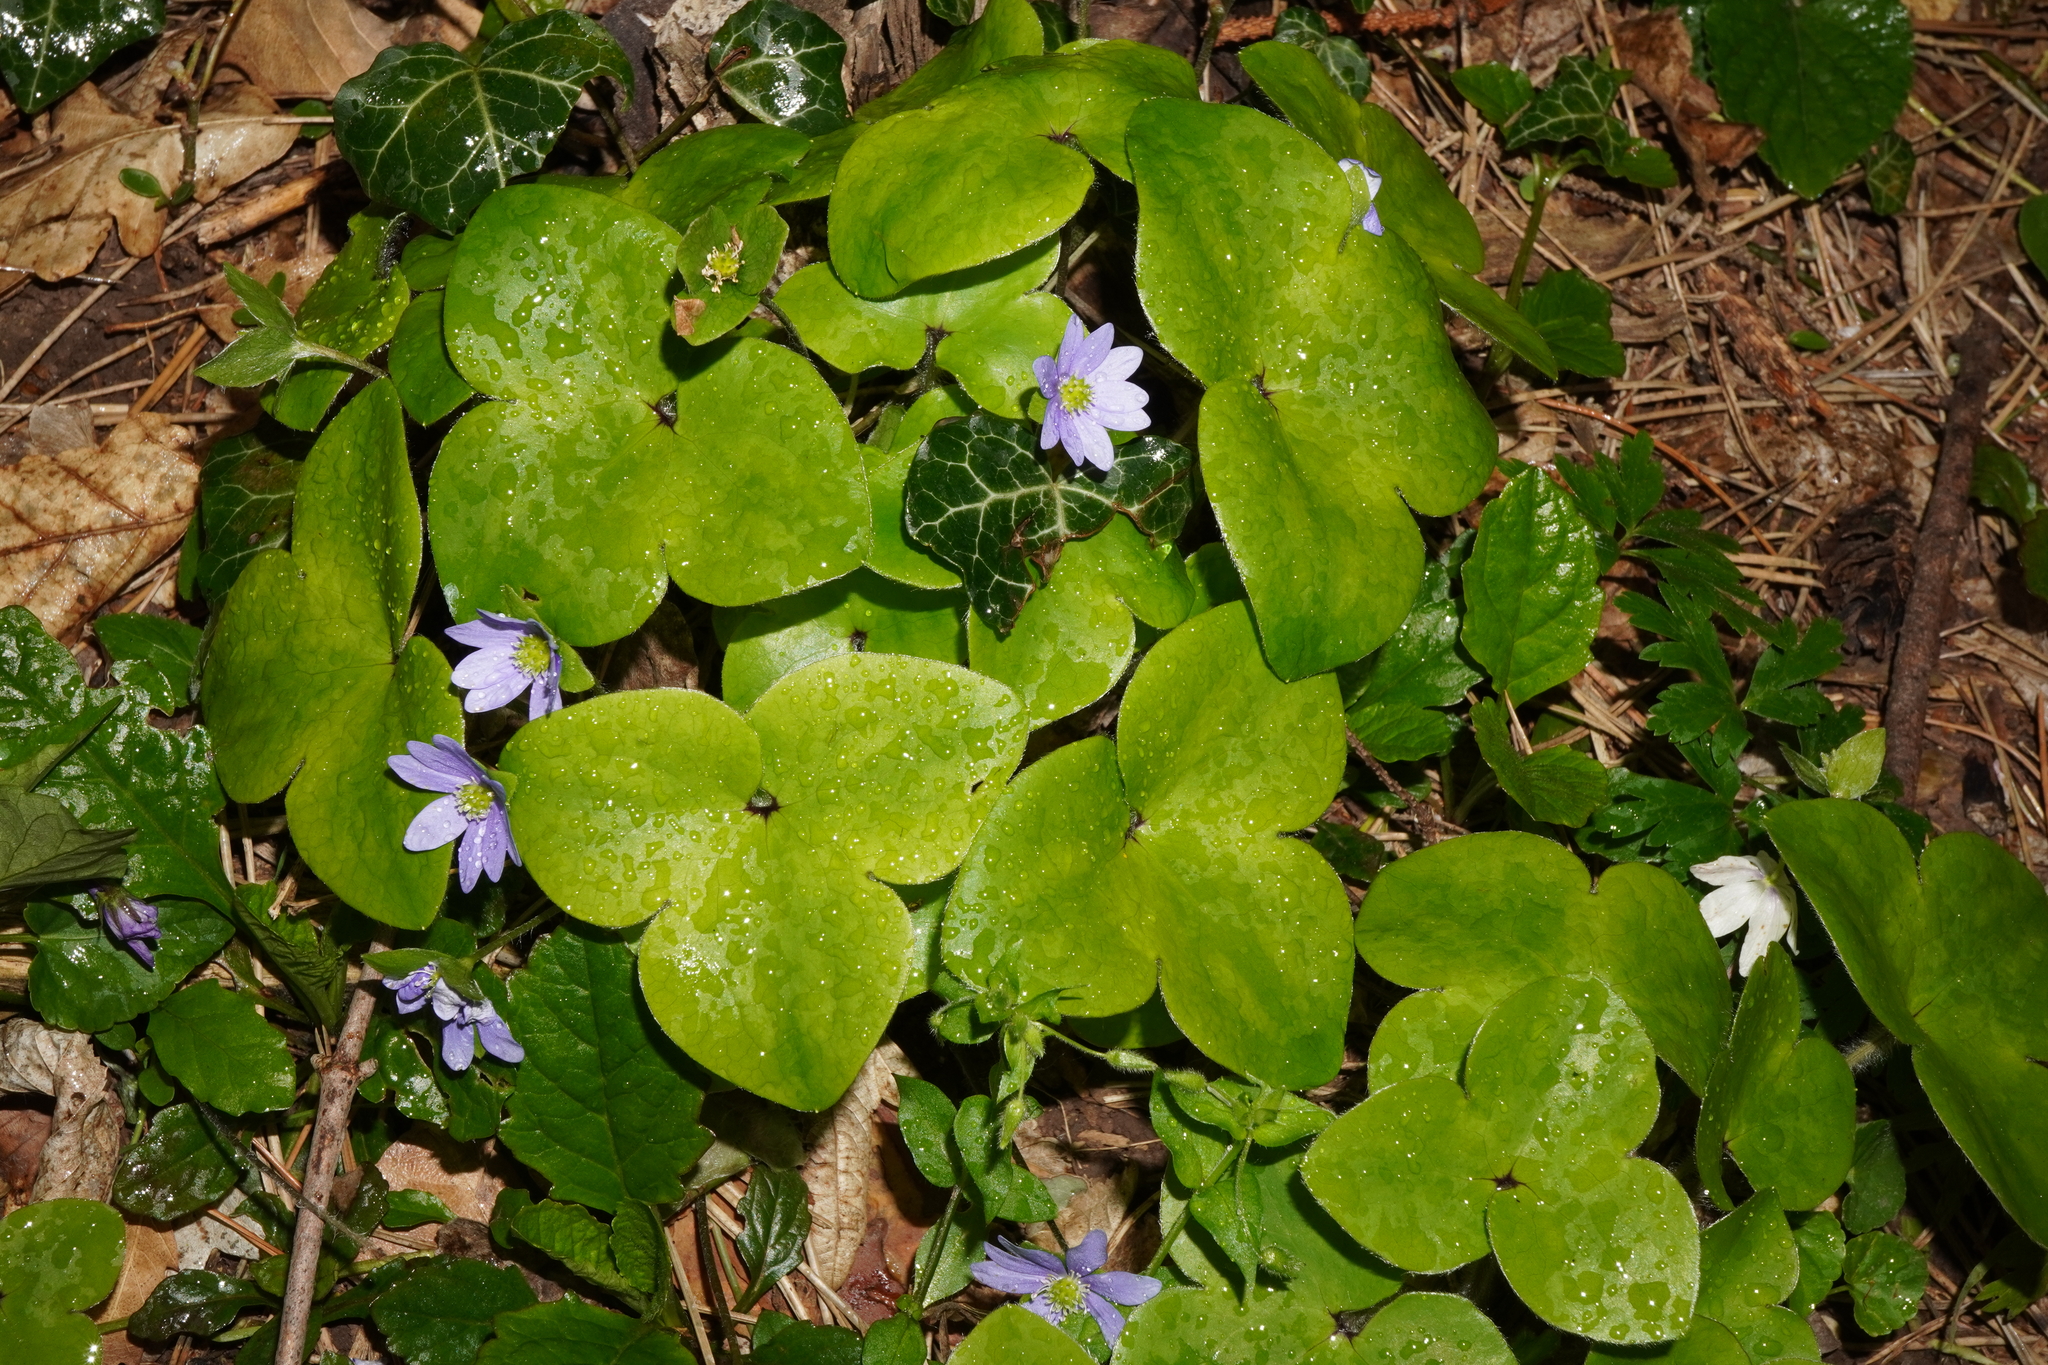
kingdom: Plantae
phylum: Tracheophyta
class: Magnoliopsida
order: Ranunculales
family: Ranunculaceae
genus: Hepatica
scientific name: Hepatica nobilis
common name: Liverleaf
